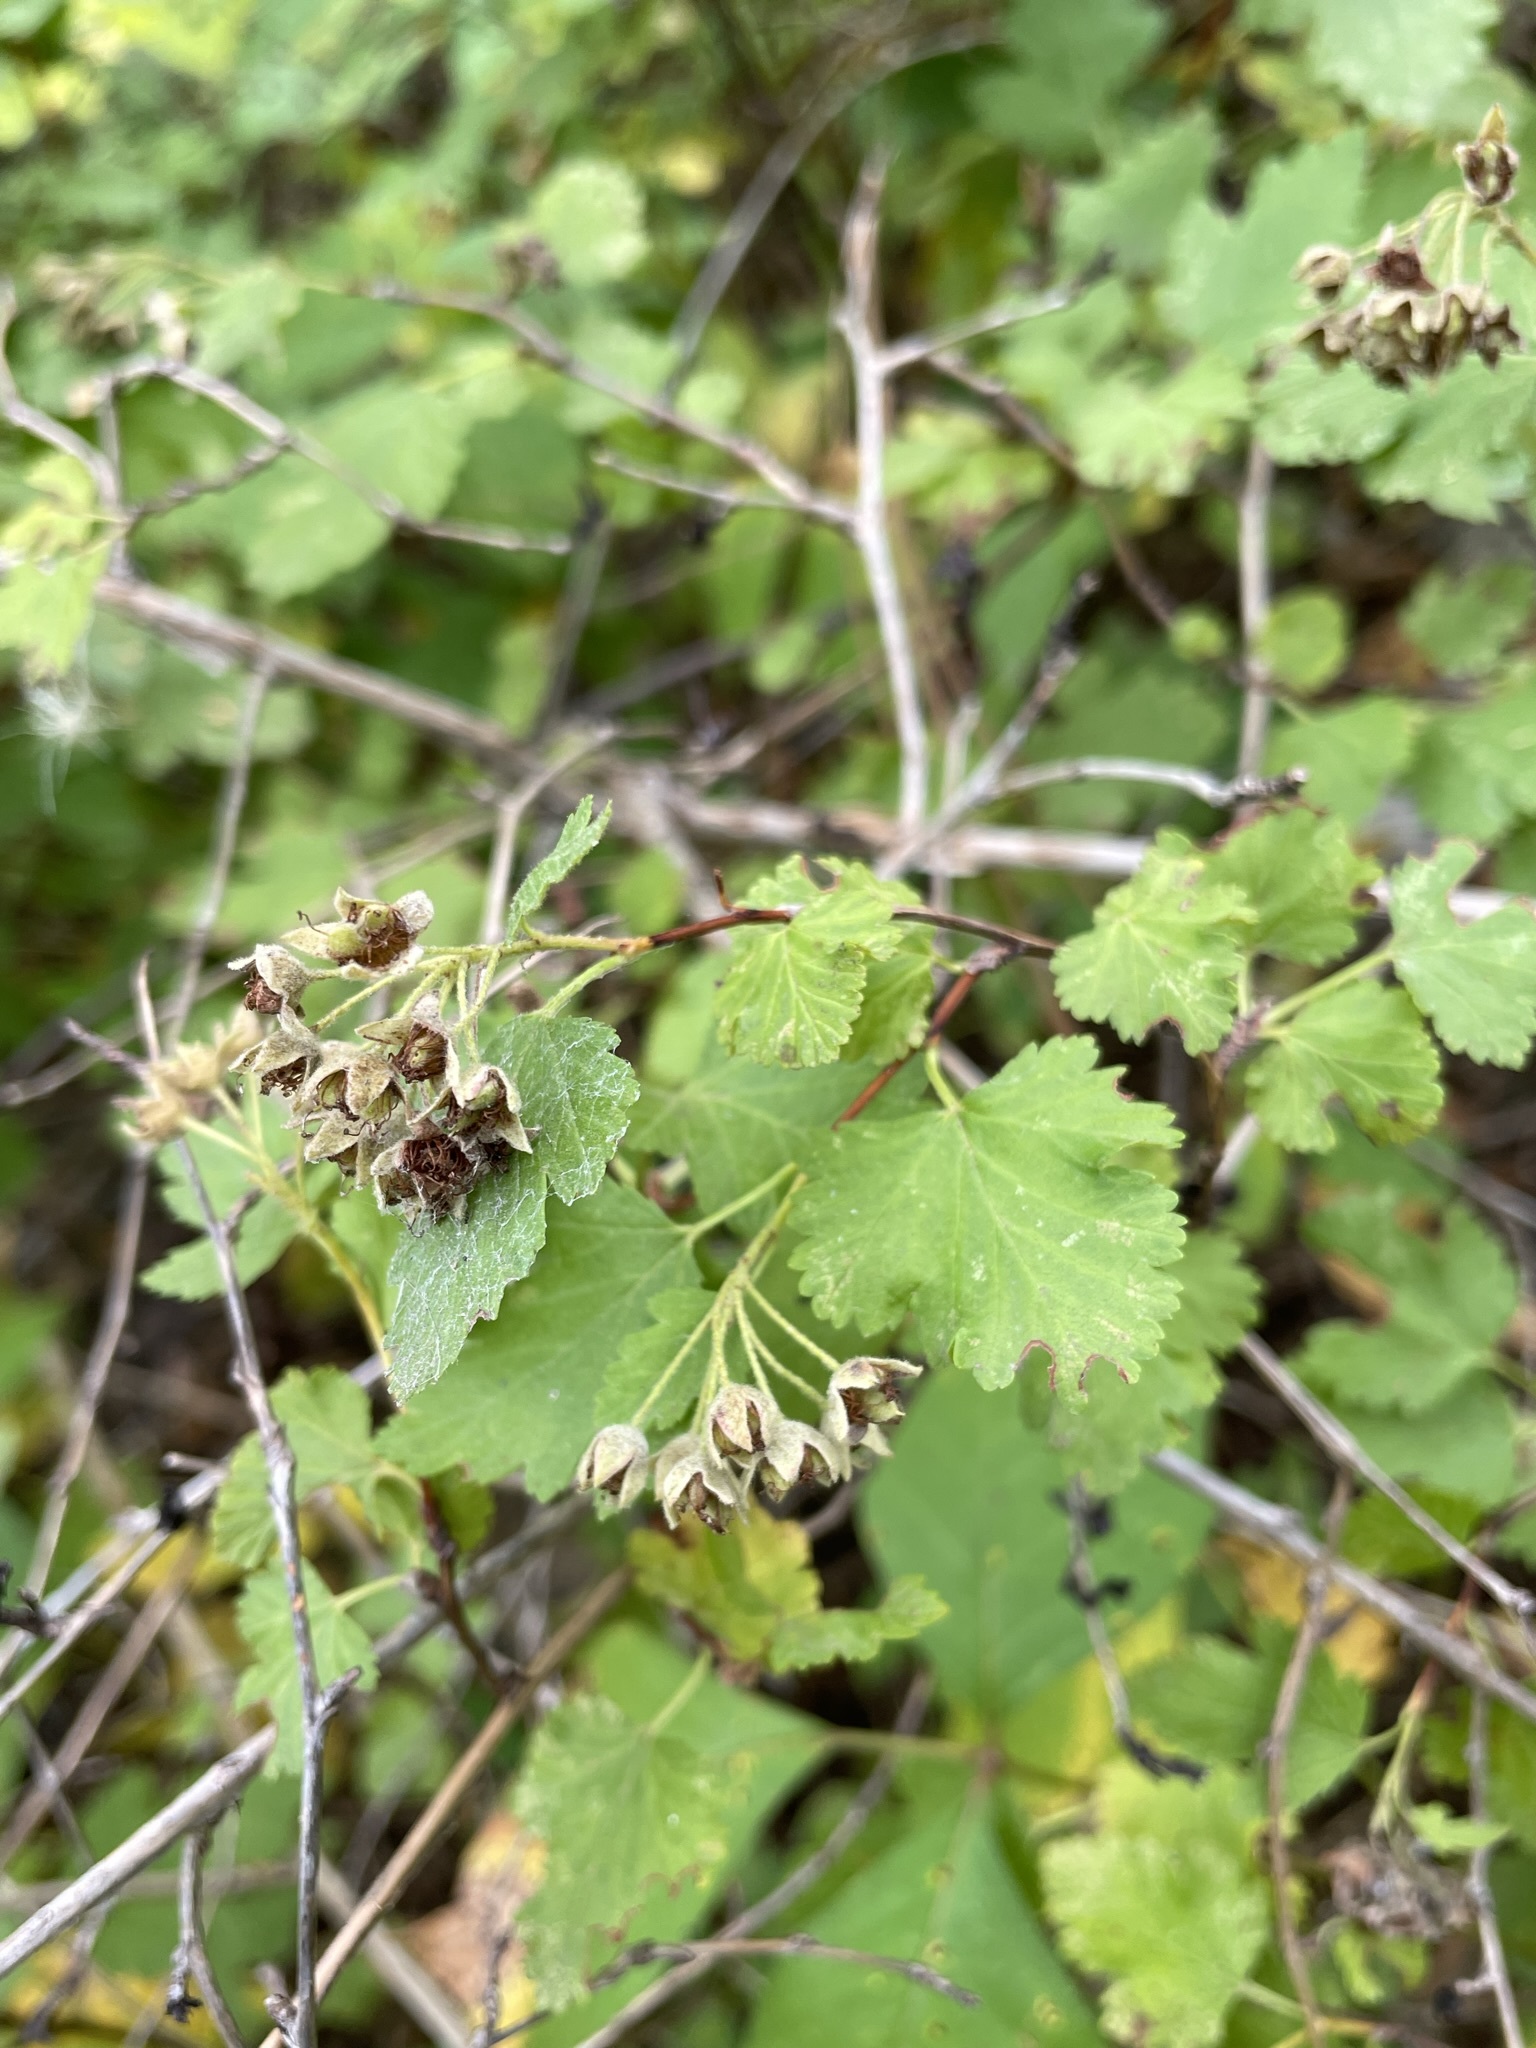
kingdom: Plantae
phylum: Tracheophyta
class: Magnoliopsida
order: Rosales
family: Rosaceae
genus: Physocarpus
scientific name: Physocarpus monogynus
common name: Mountain ninebark
